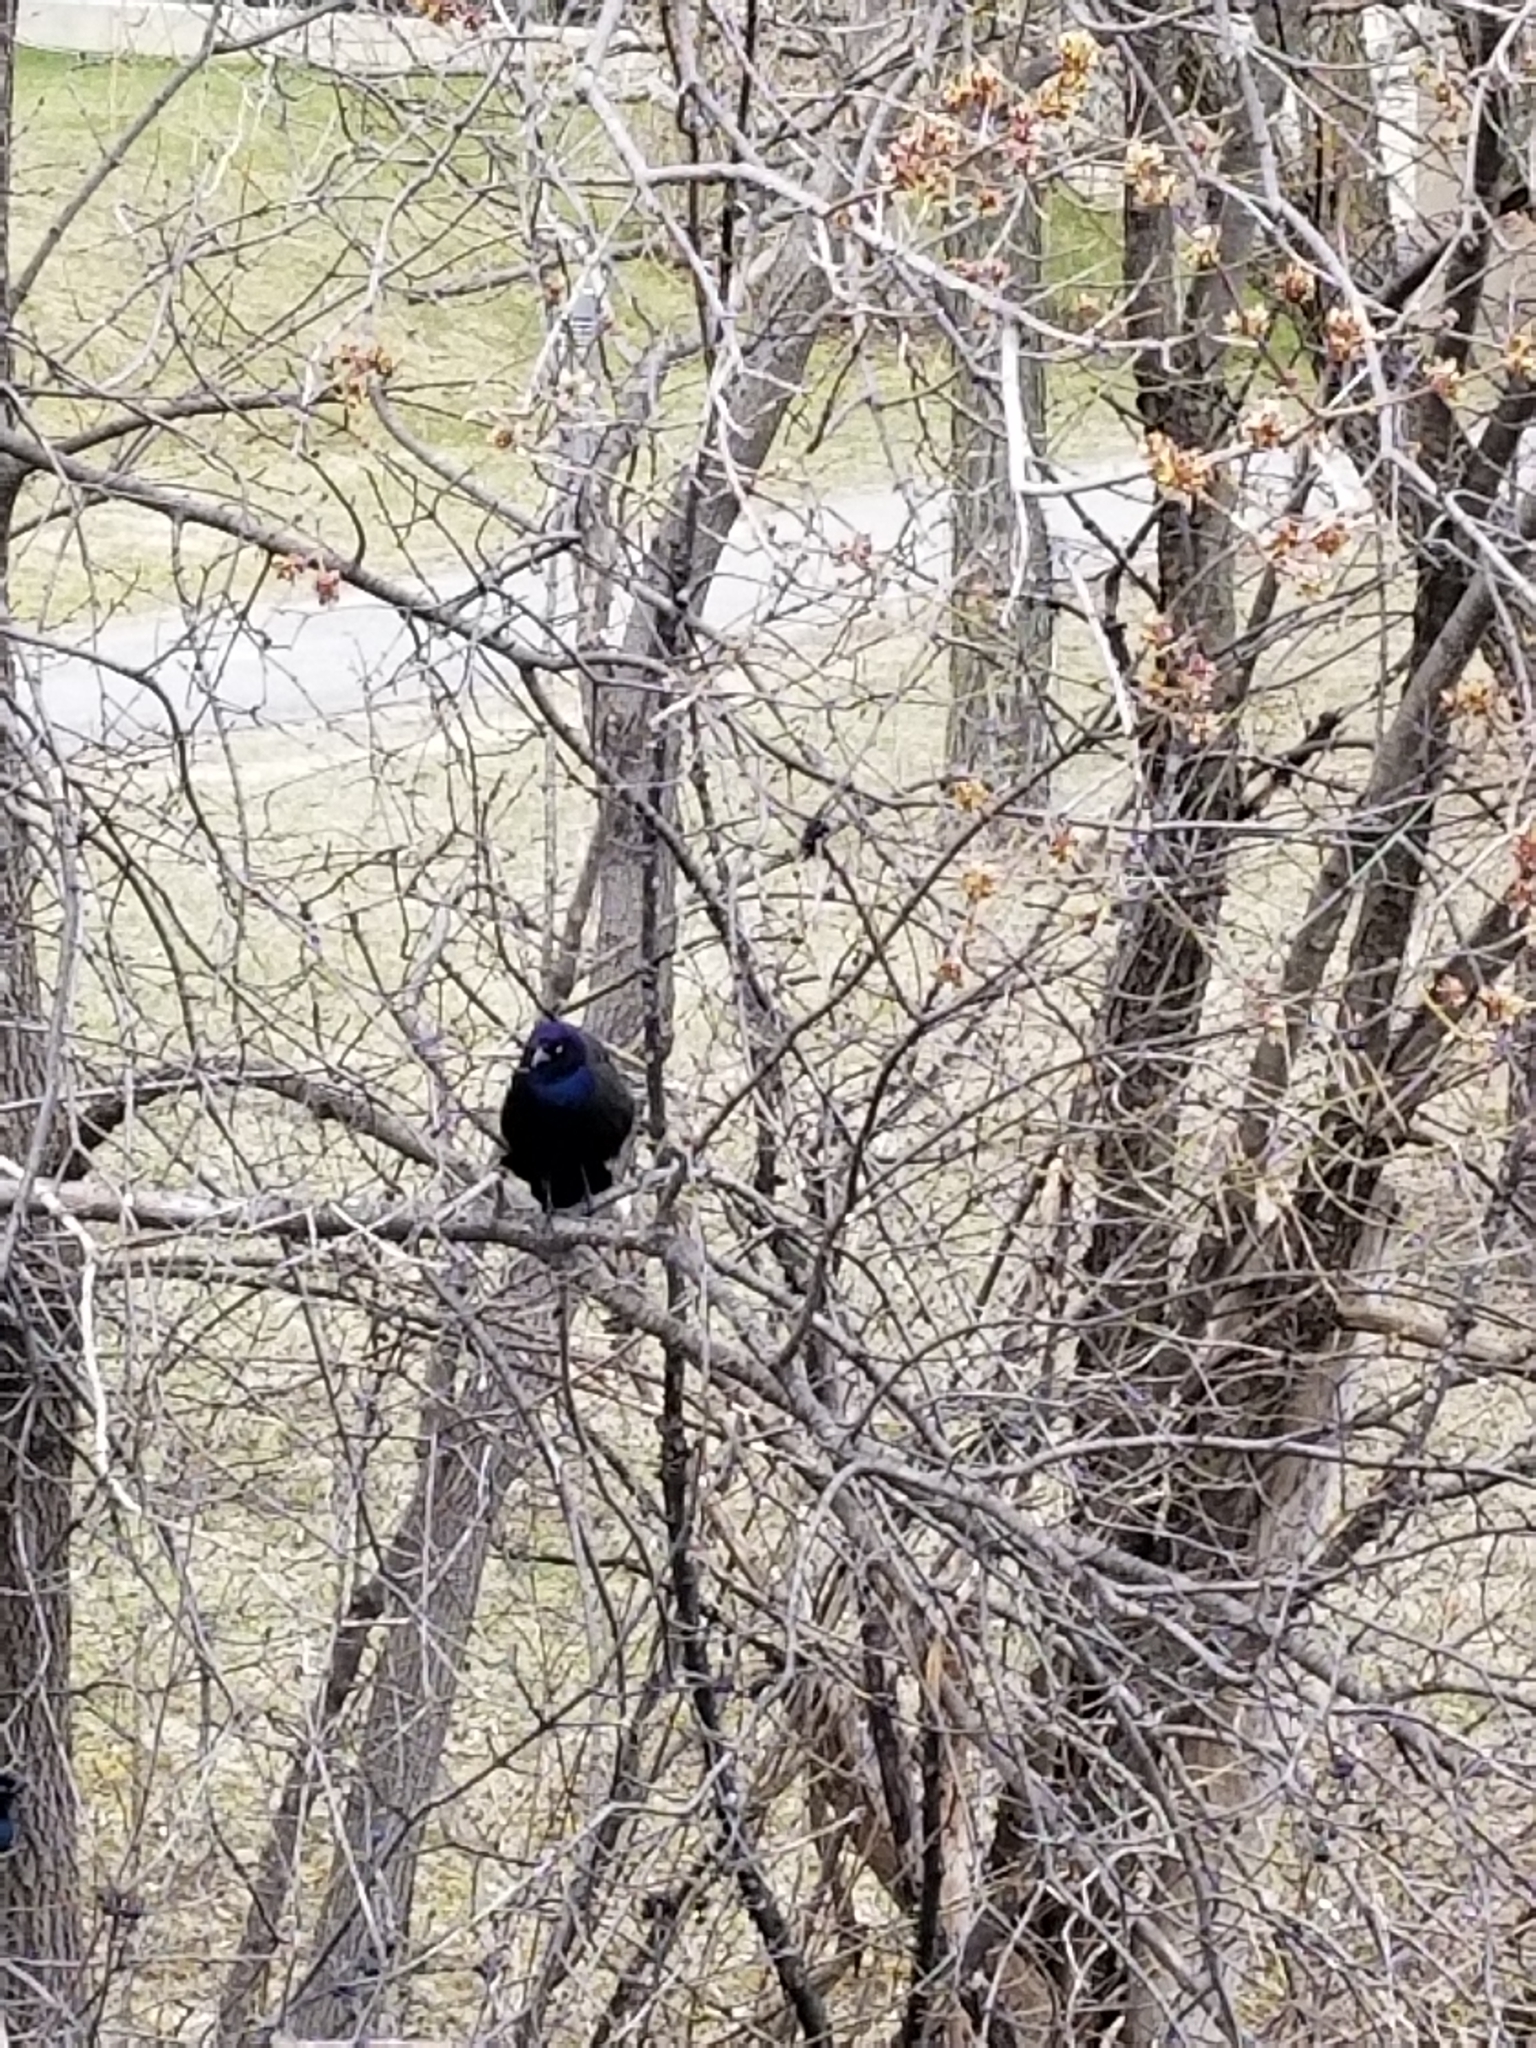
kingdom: Animalia
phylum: Chordata
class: Aves
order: Passeriformes
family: Icteridae
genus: Quiscalus
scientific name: Quiscalus quiscula
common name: Common grackle
